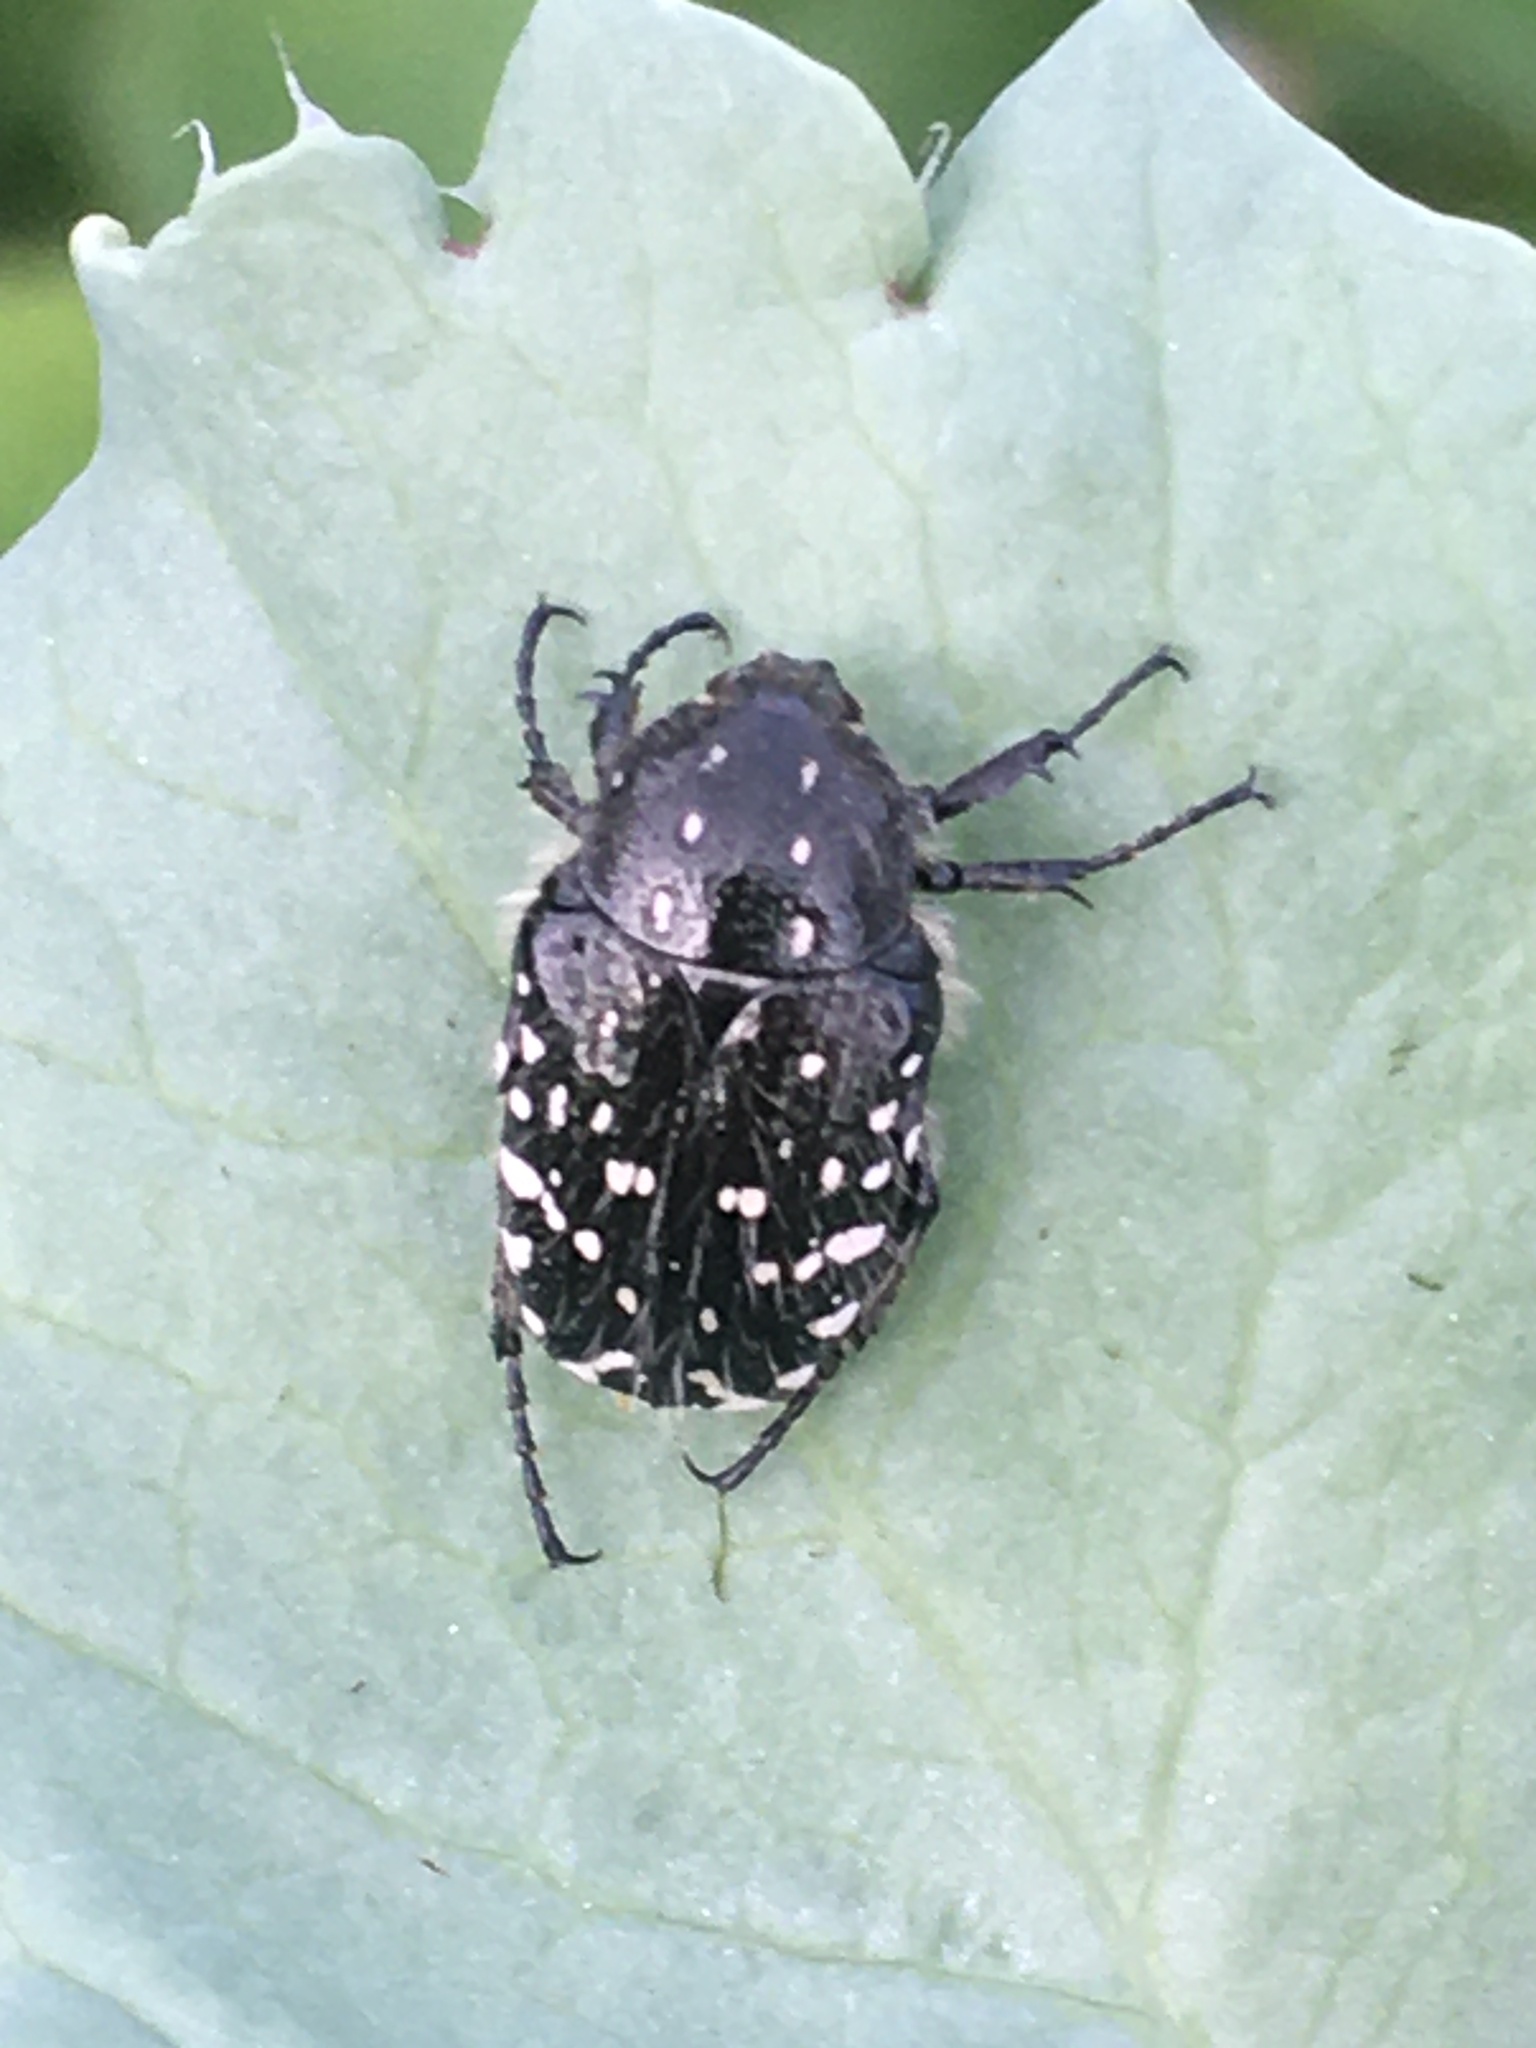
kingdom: Animalia
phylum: Arthropoda
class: Insecta
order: Coleoptera
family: Scarabaeidae
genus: Oxythyrea
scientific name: Oxythyrea funesta
